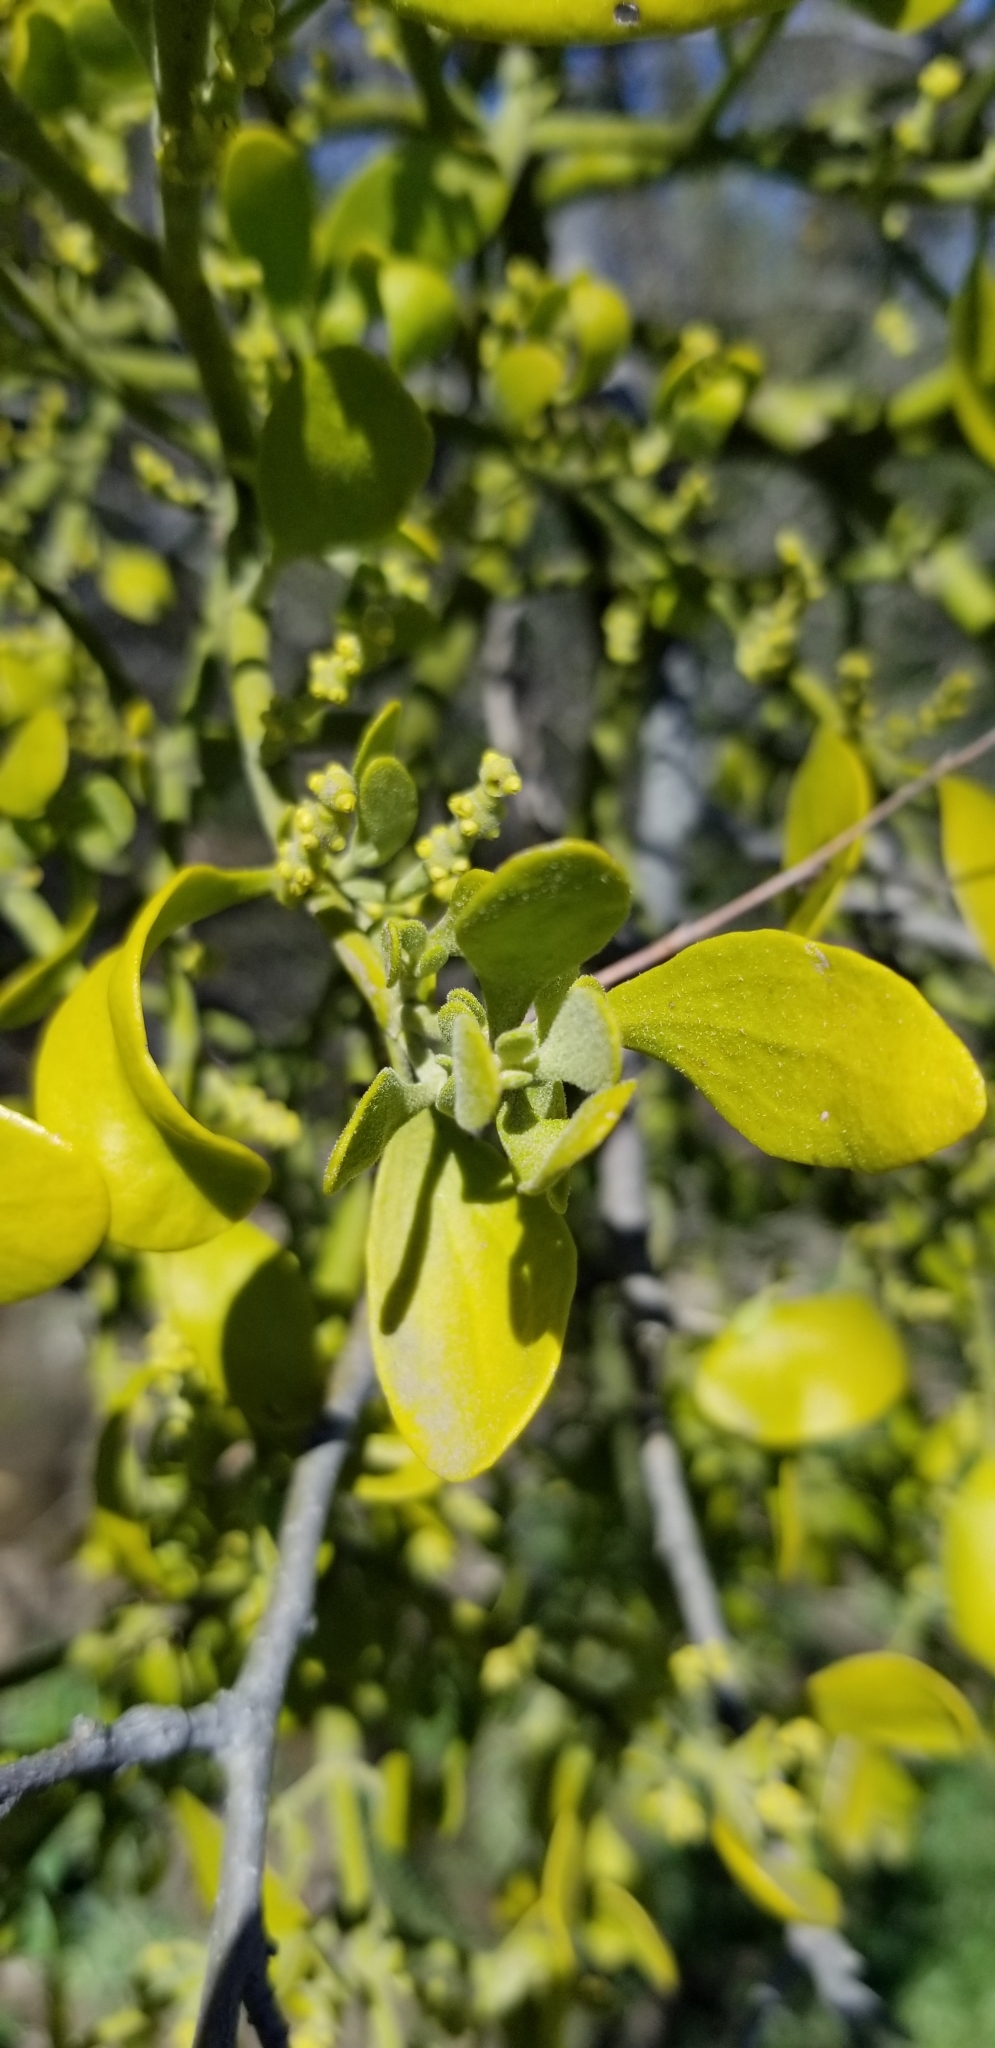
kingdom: Plantae
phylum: Tracheophyta
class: Magnoliopsida
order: Santalales
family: Viscaceae
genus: Phoradendron
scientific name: Phoradendron leucarpum
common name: Pacific mistletoe
